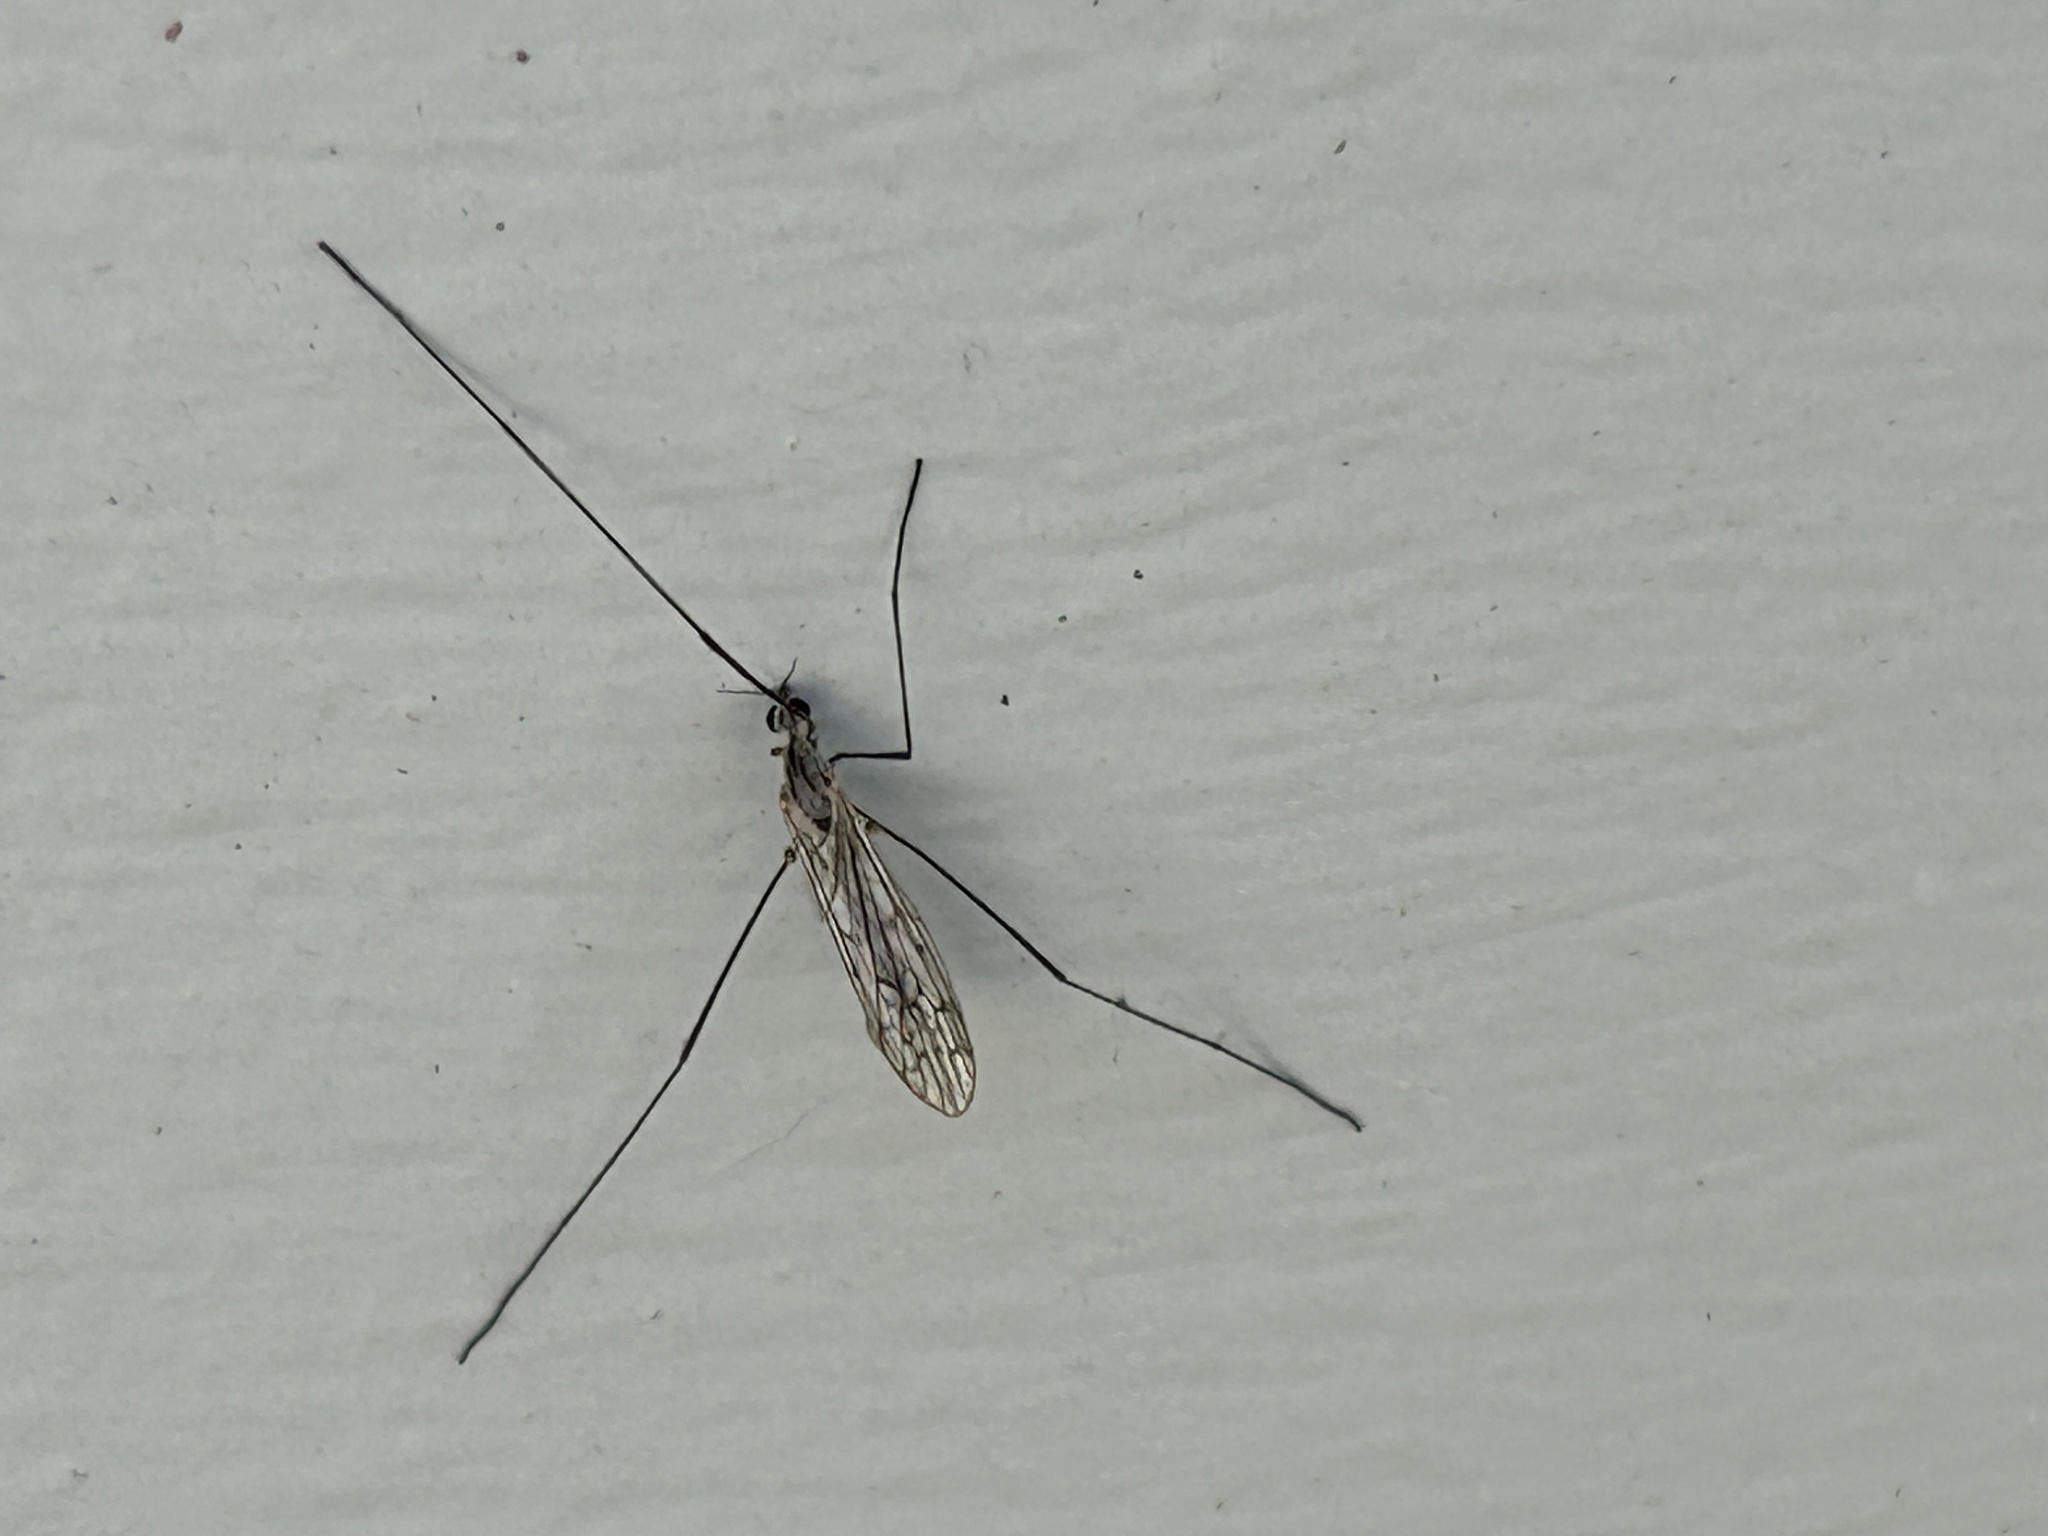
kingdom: Animalia
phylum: Arthropoda
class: Insecta
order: Diptera
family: Limoniidae
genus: Symplecta
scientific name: Symplecta cana
